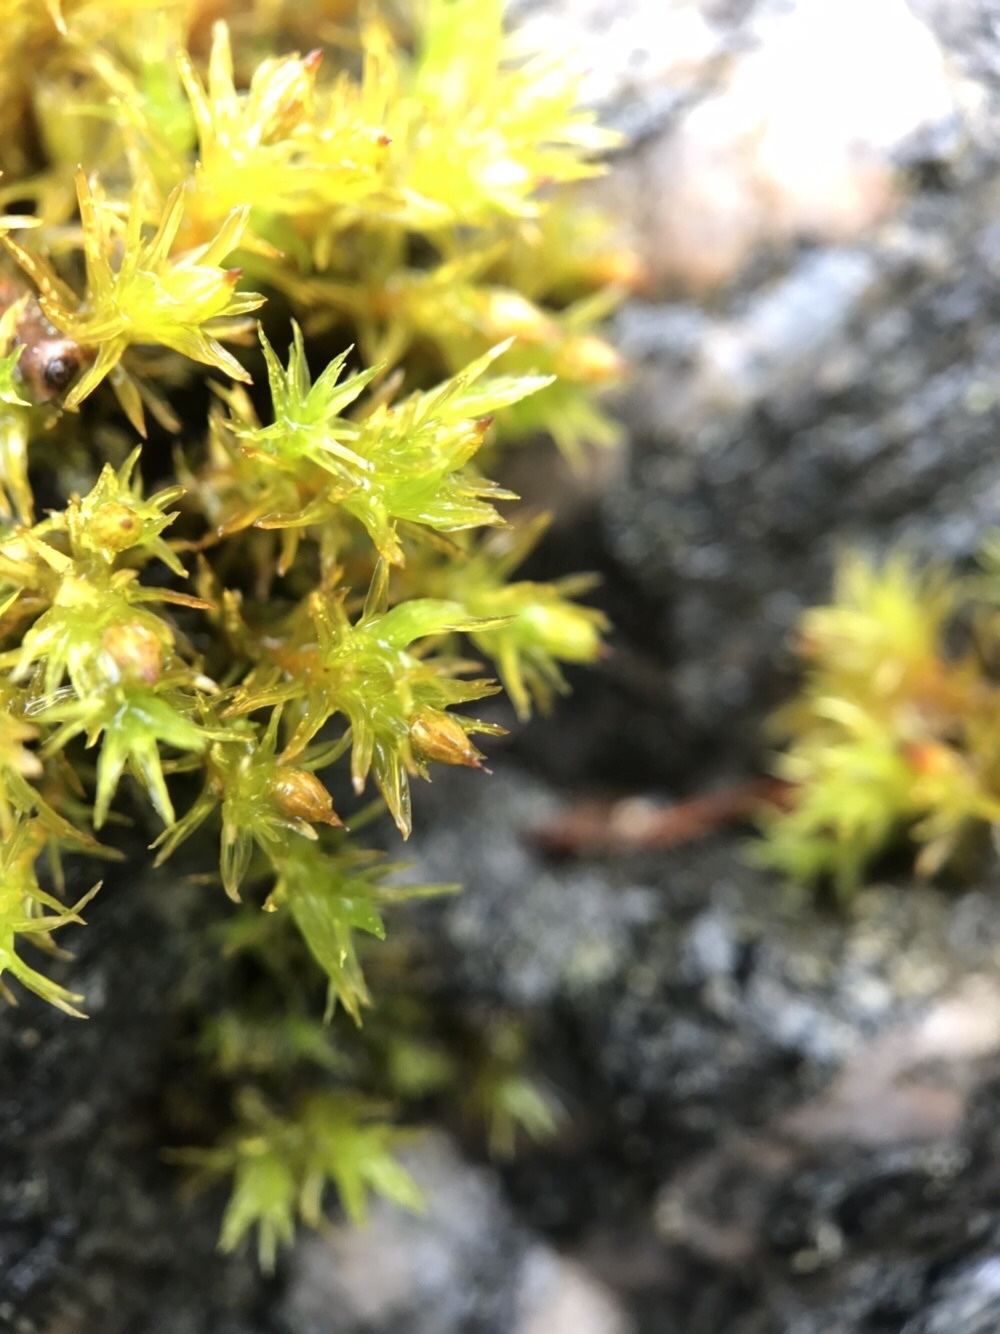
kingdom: Plantae
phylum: Bryophyta
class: Bryopsida
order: Orthotrichales
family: Orthotrichaceae
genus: Orthotrichum
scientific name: Orthotrichum cupulatum
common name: Hooded bristle-moss
